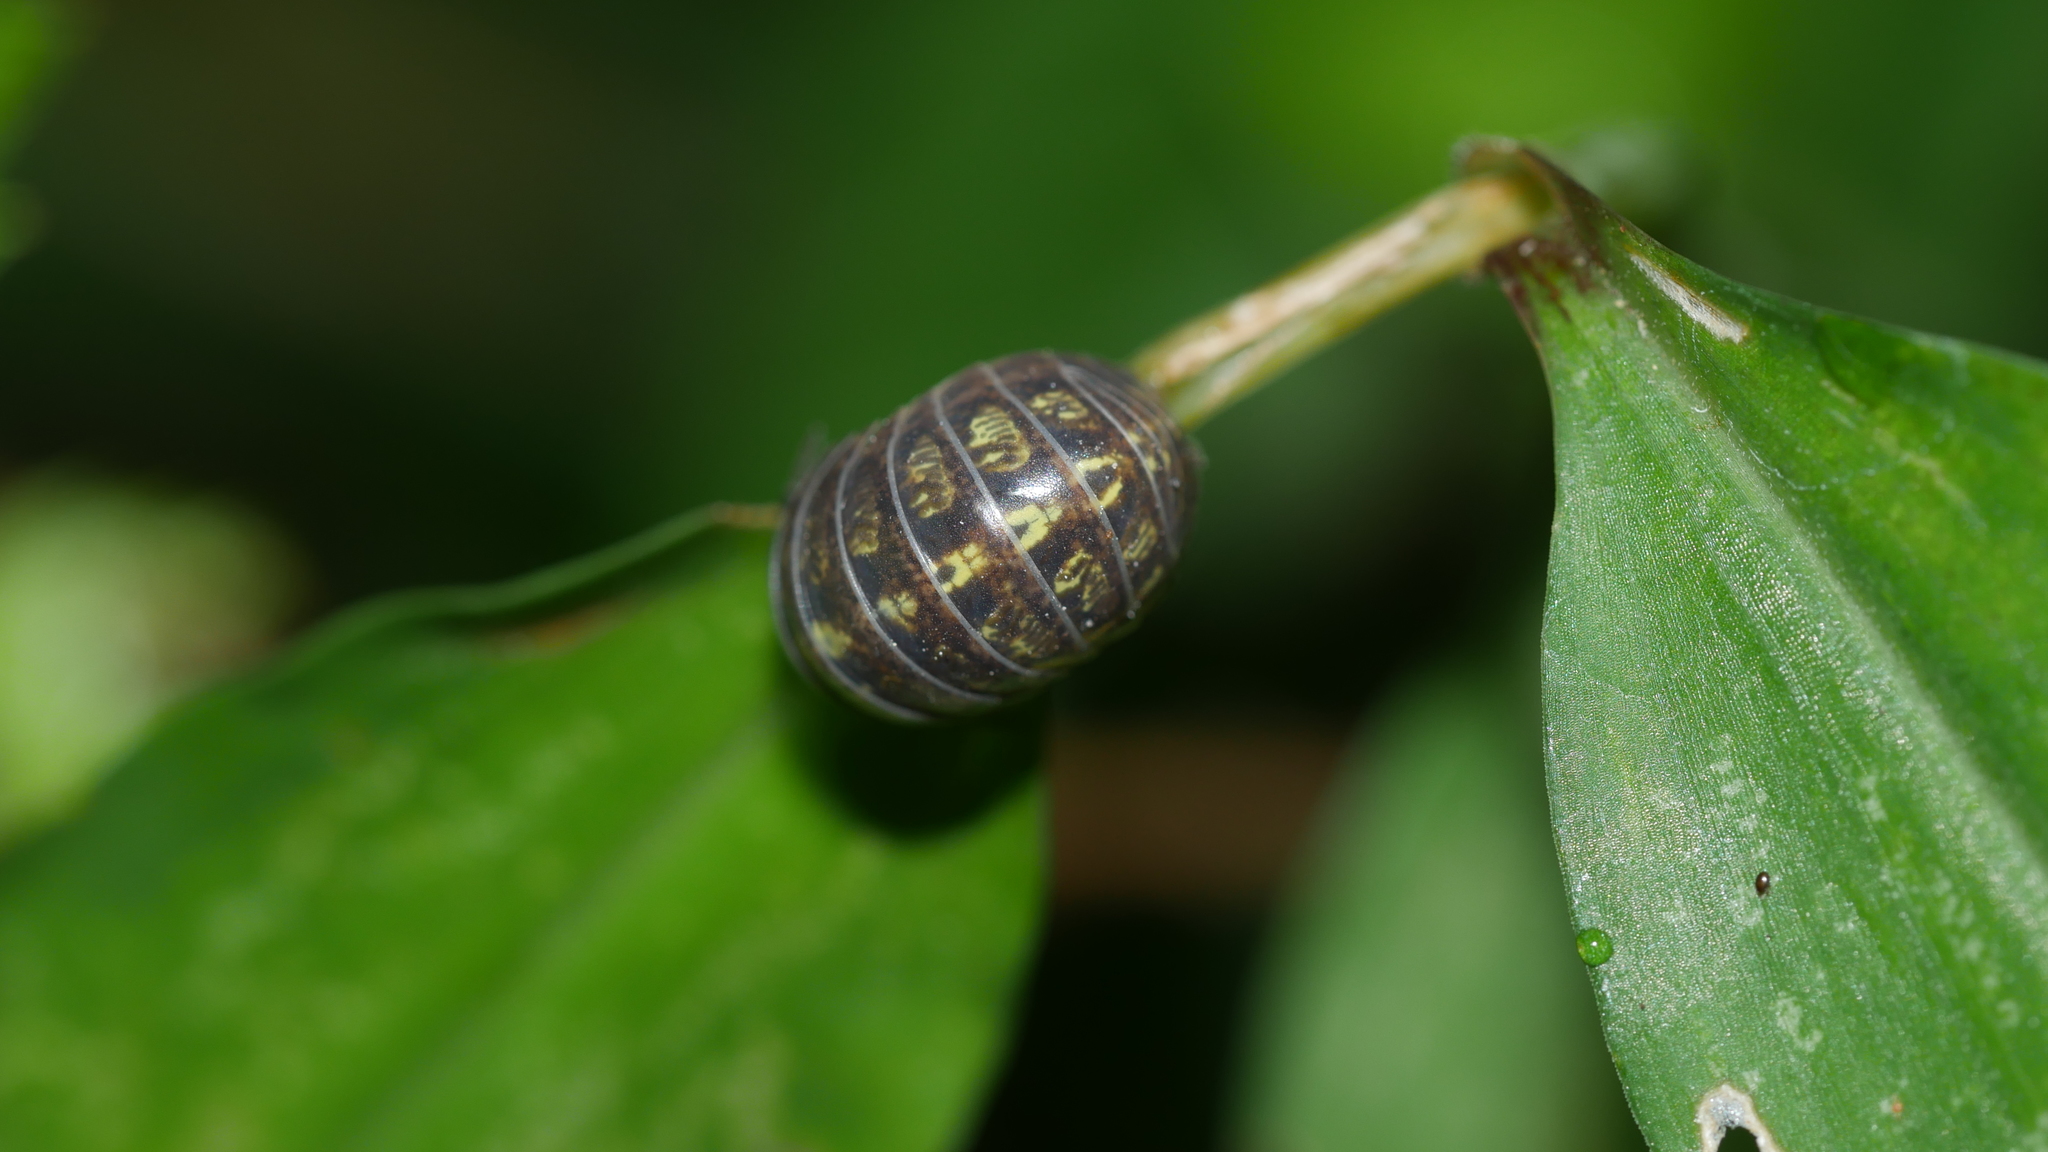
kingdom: Animalia
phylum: Arthropoda
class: Malacostraca
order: Isopoda
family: Armadillidiidae
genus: Armadillidium
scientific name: Armadillidium vulgare
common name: Common pill woodlouse
